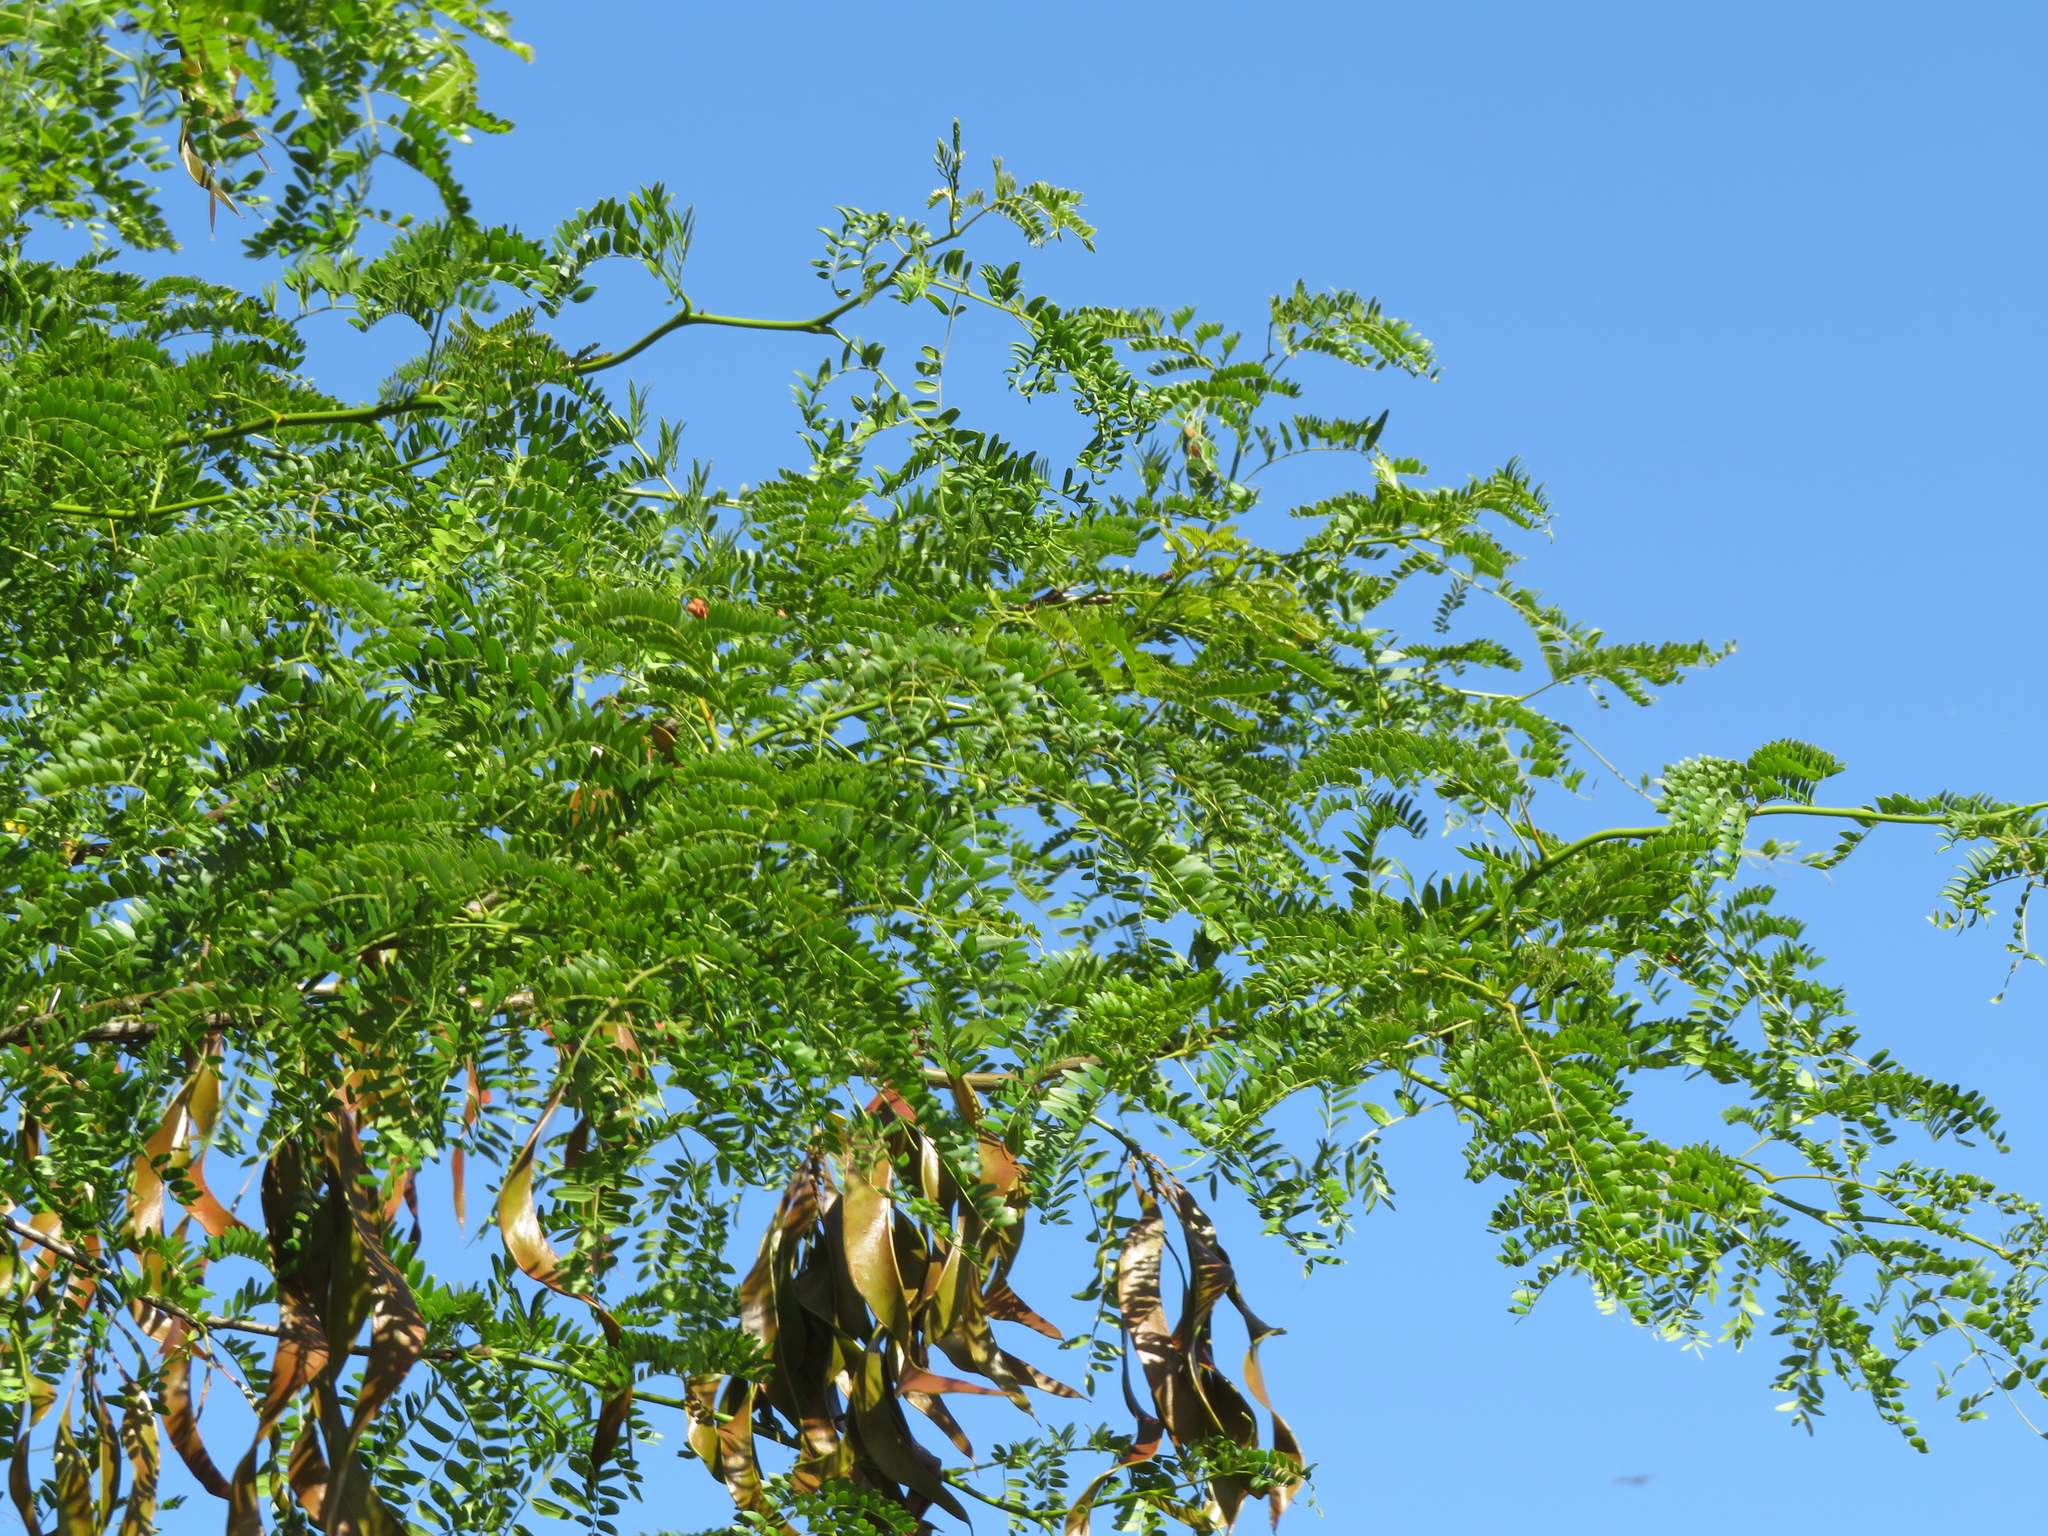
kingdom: Plantae
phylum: Tracheophyta
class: Magnoliopsida
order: Fabales
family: Fabaceae
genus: Gleditsia
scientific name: Gleditsia triacanthos
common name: Common honeylocust
